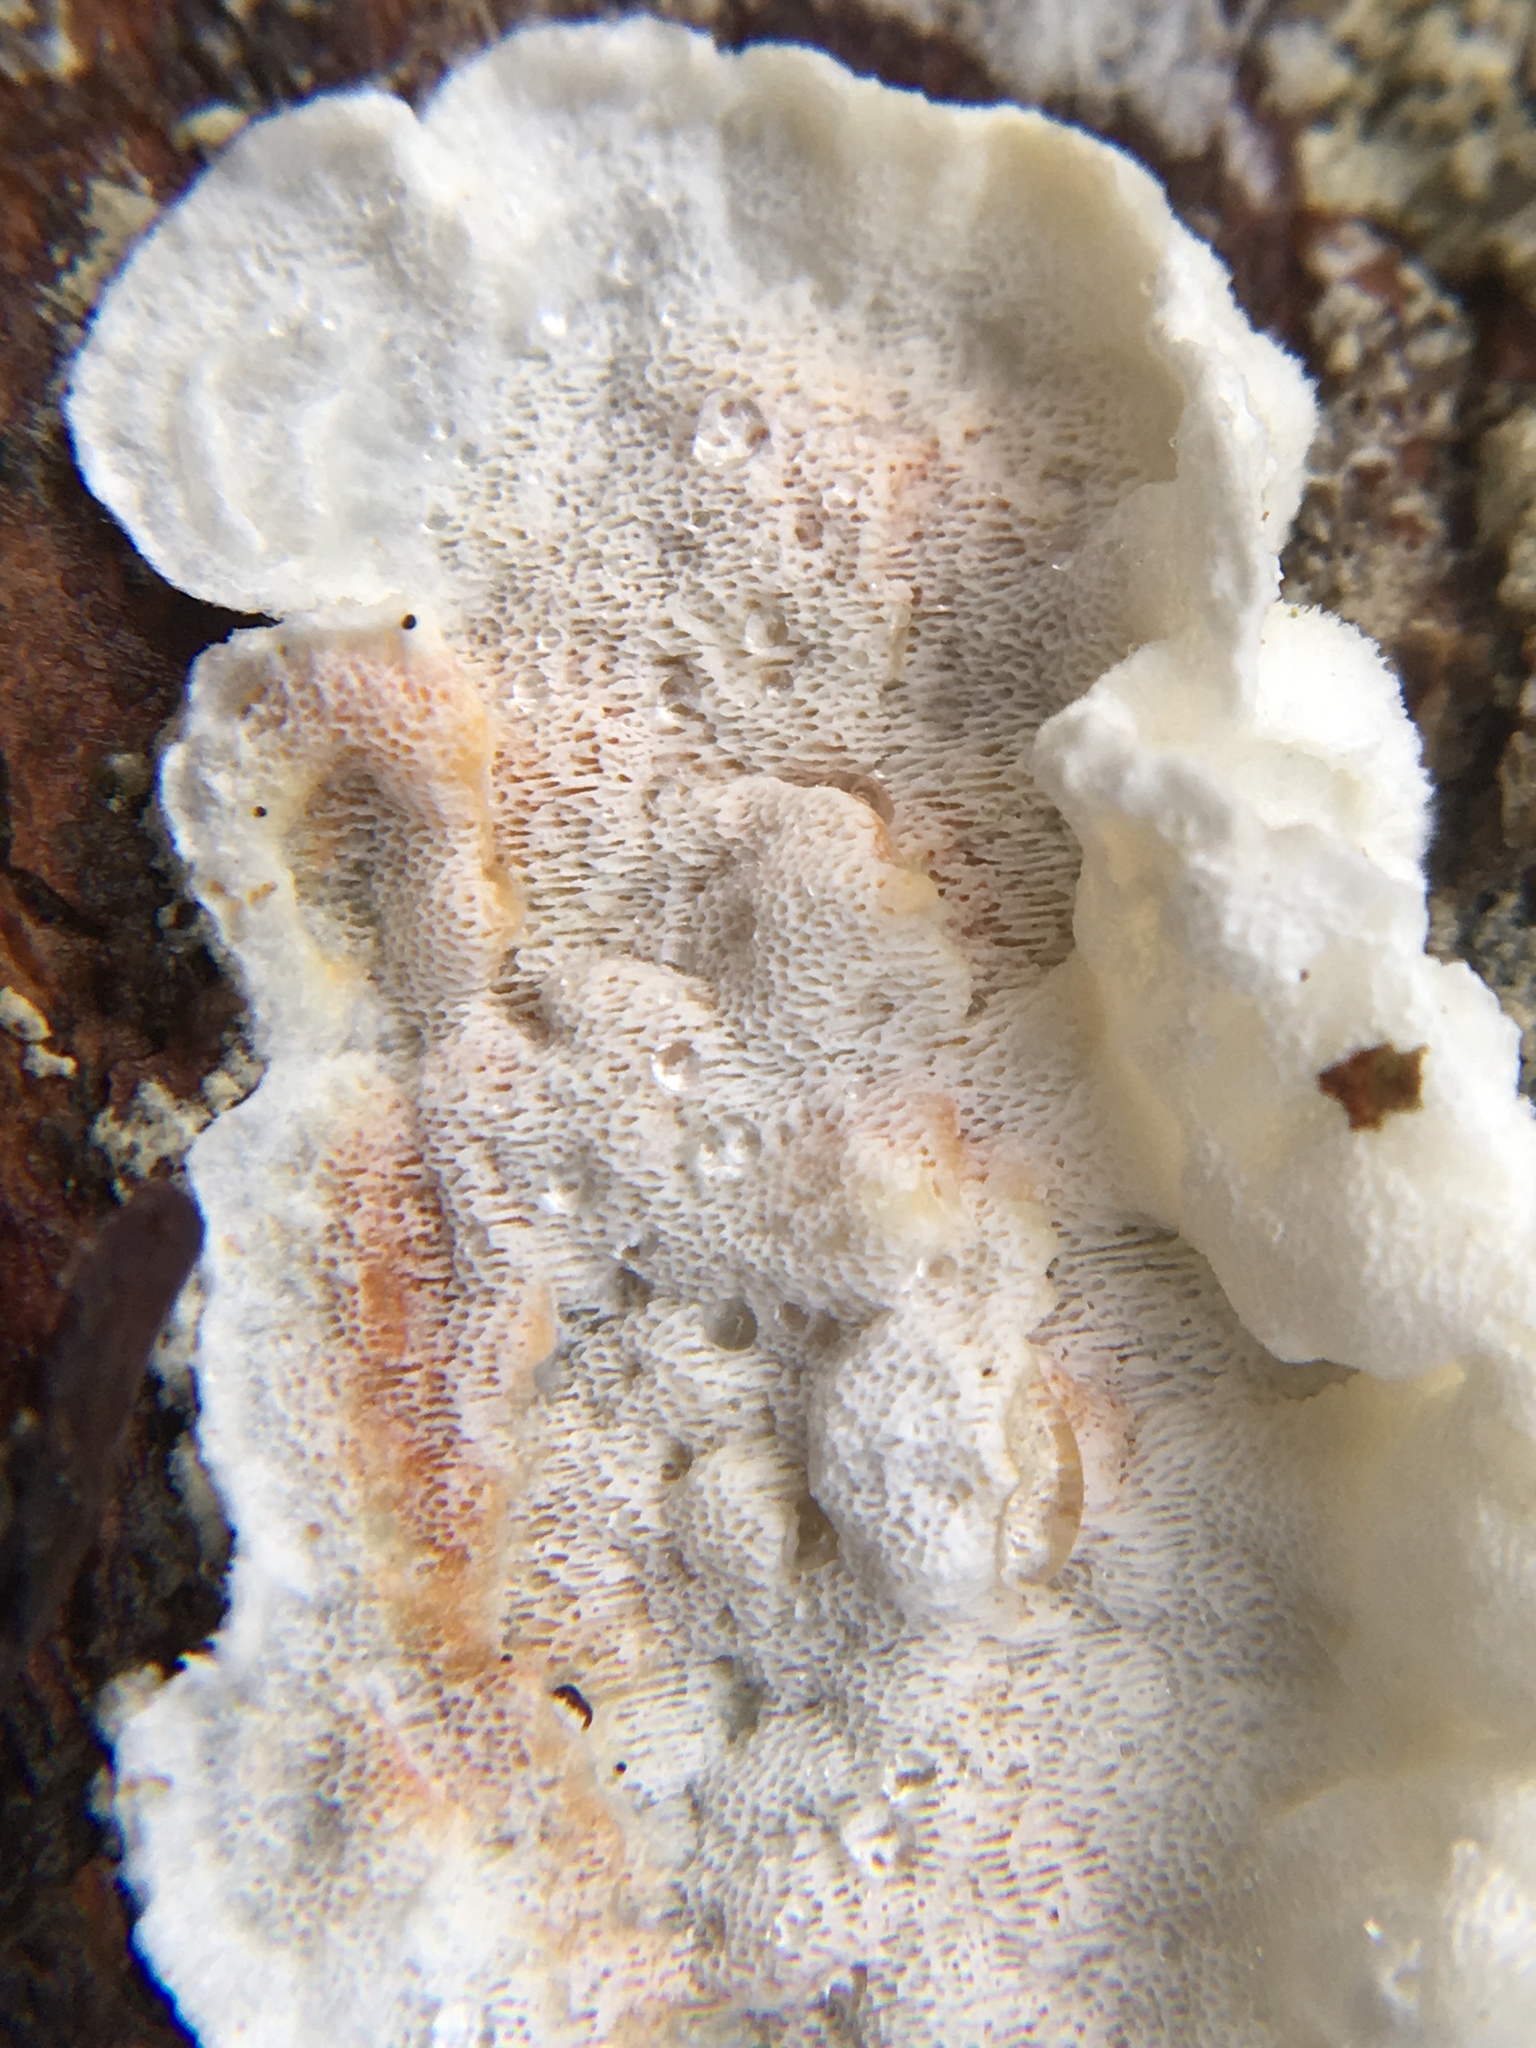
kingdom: Fungi
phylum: Basidiomycota
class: Agaricomycetes
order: Polyporales
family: Incrustoporiaceae
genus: Skeletocutis
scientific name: Skeletocutis carneogrisea
